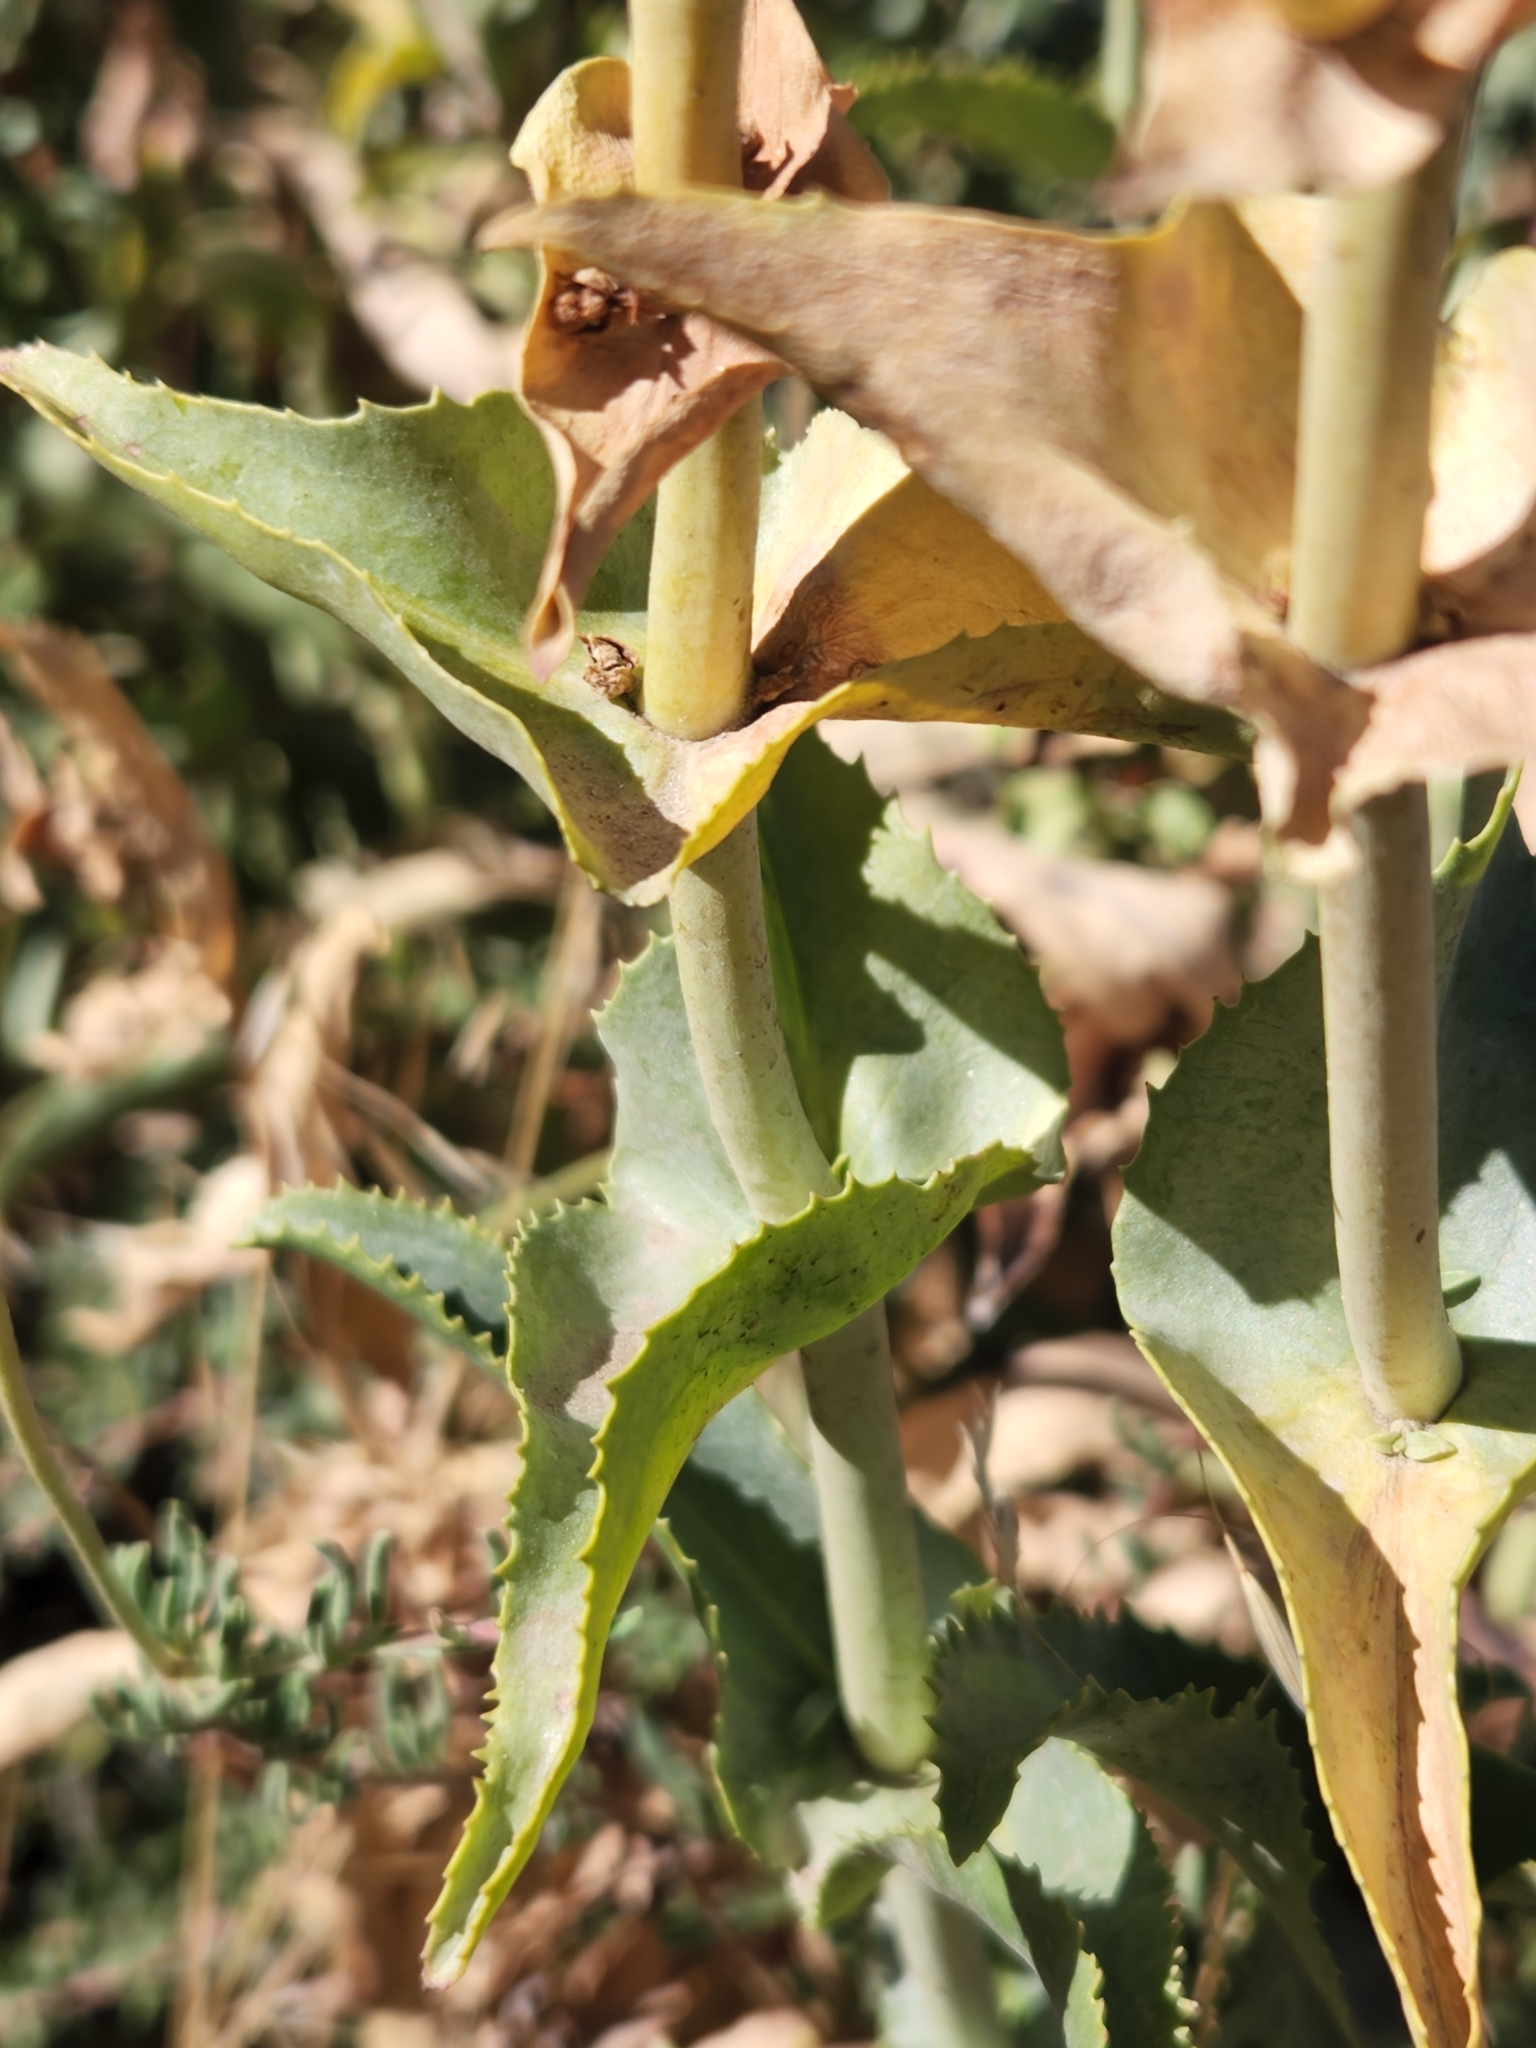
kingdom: Plantae
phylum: Tracheophyta
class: Magnoliopsida
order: Lamiales
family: Plantaginaceae
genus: Penstemon
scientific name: Penstemon spectabilis
